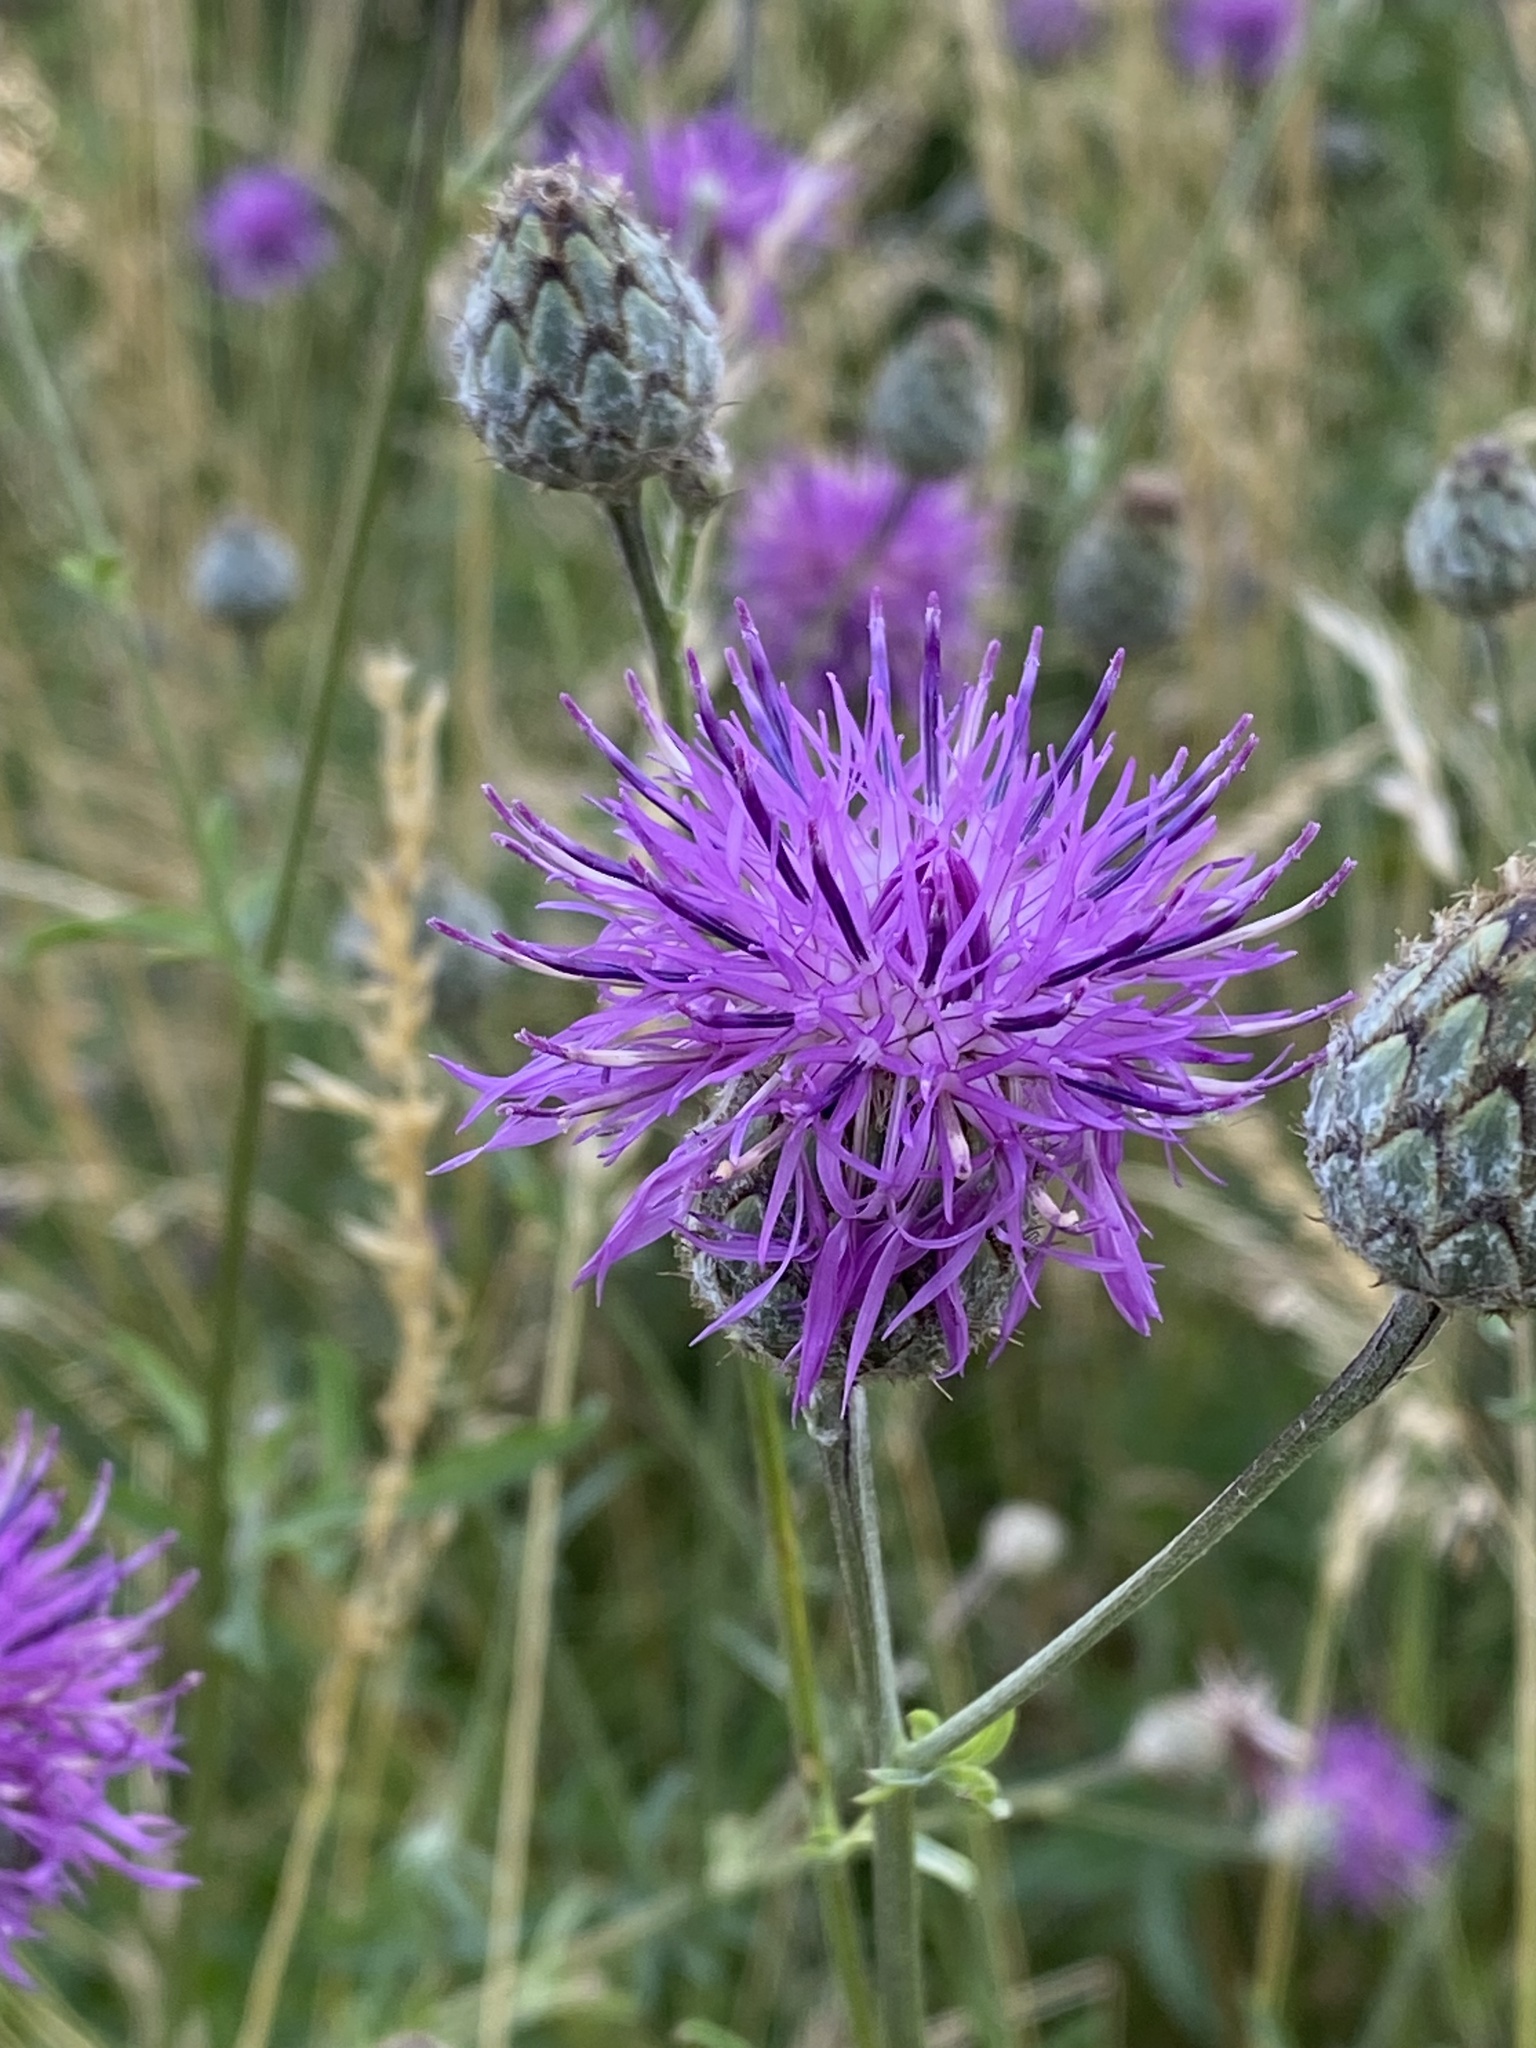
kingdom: Plantae
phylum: Tracheophyta
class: Magnoliopsida
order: Asterales
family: Asteraceae
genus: Centaurea
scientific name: Centaurea scabiosa
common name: Greater knapweed
